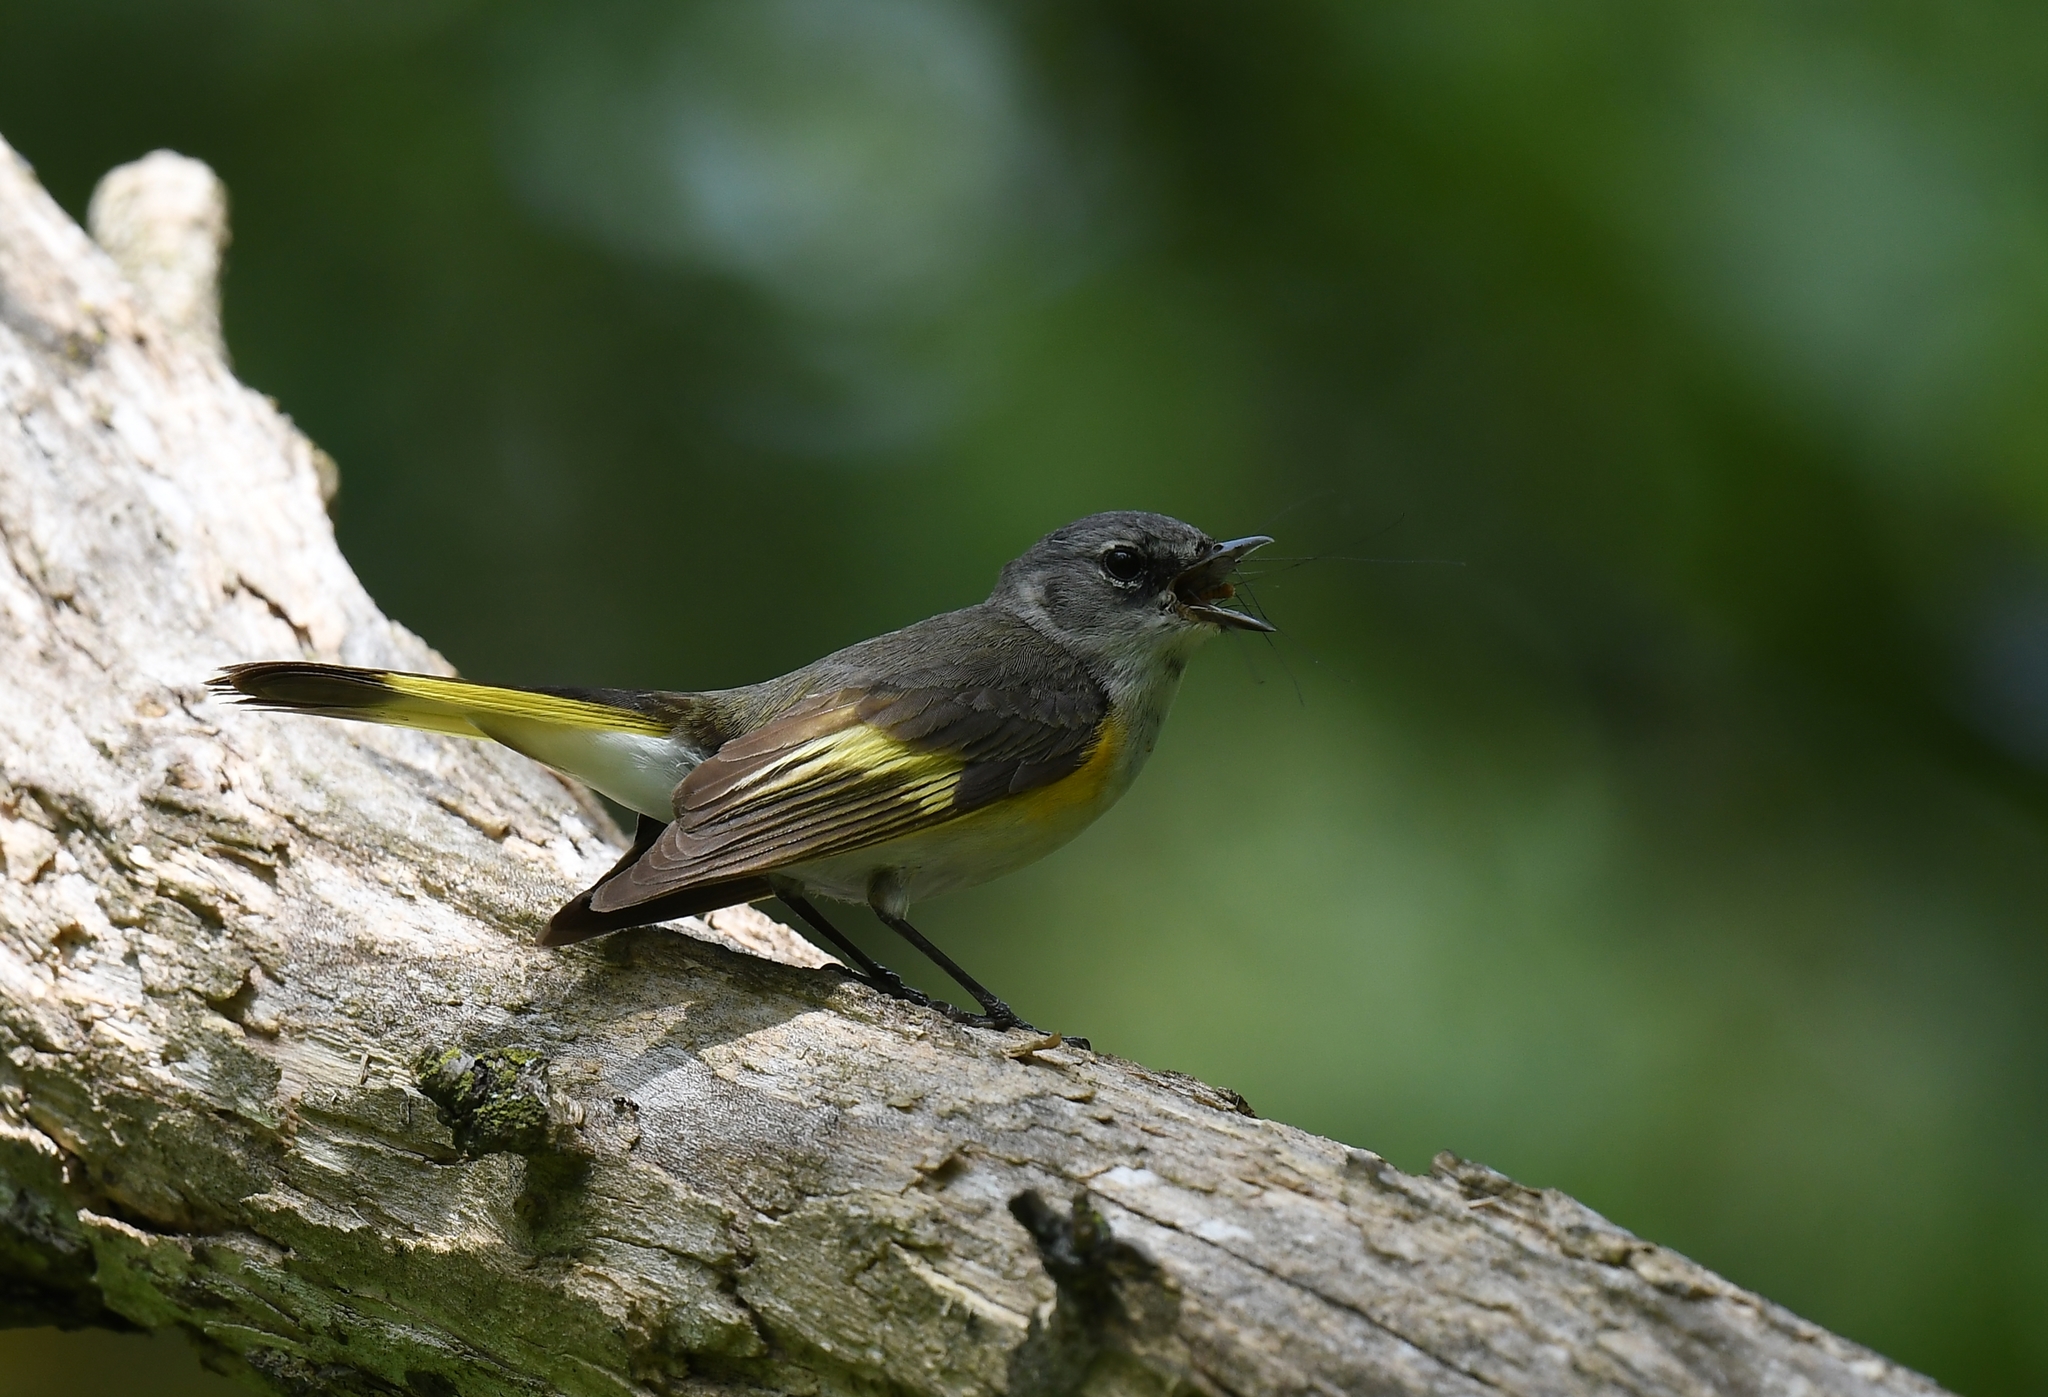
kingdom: Animalia
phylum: Chordata
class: Aves
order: Passeriformes
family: Parulidae
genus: Setophaga
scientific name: Setophaga ruticilla
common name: American redstart
